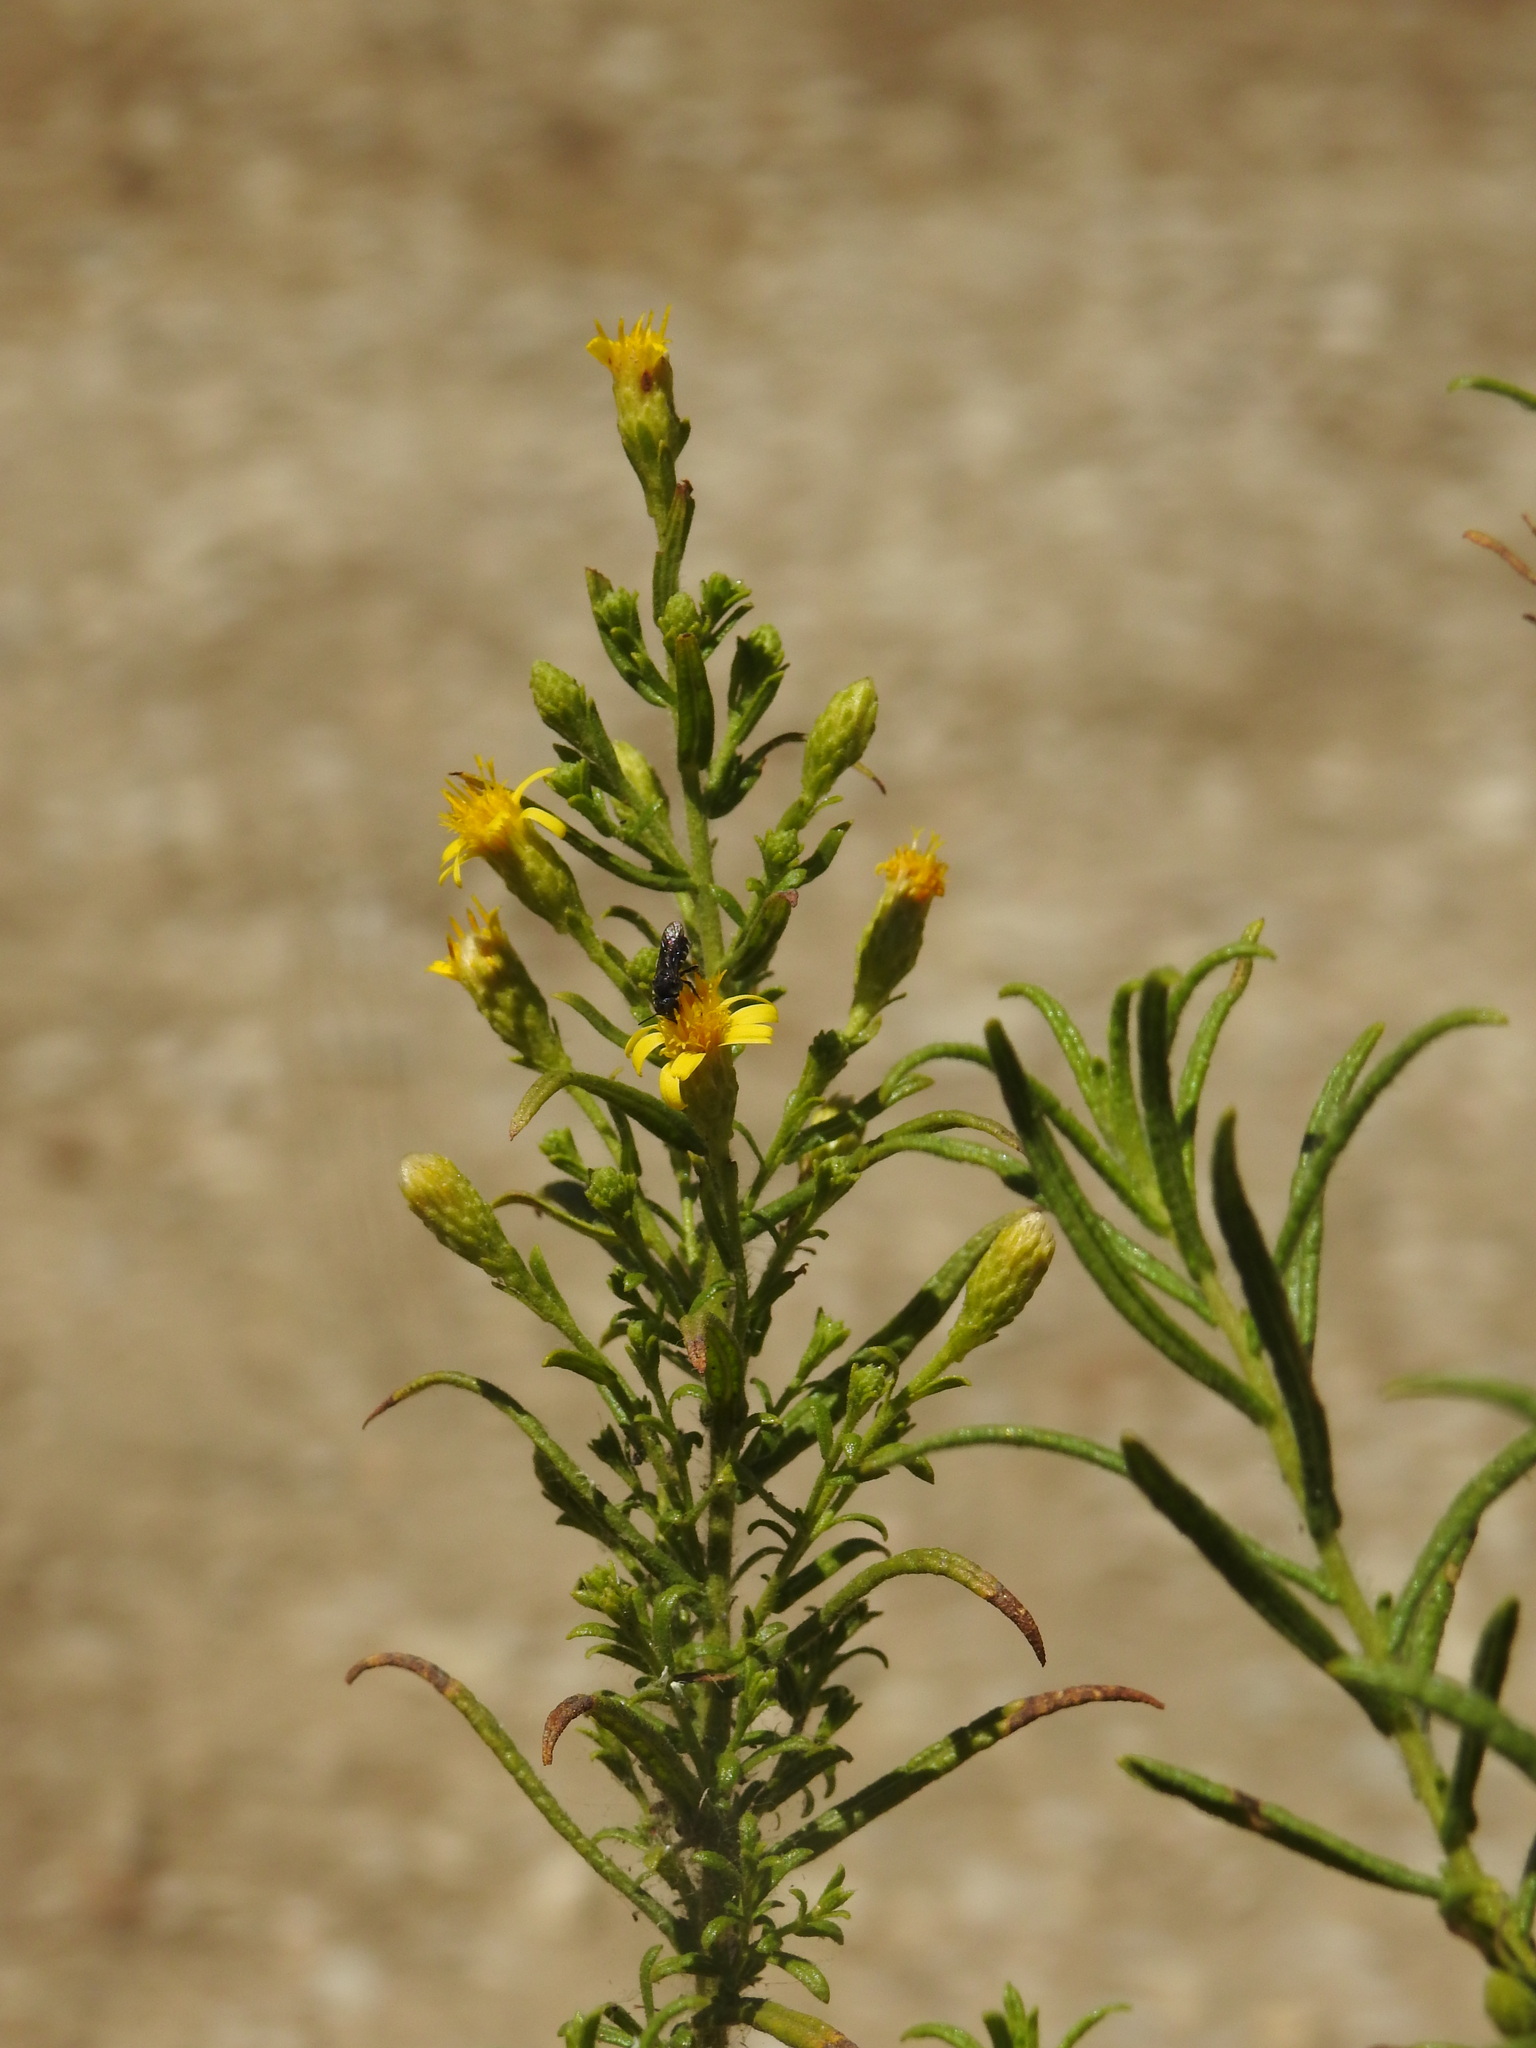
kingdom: Plantae
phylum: Tracheophyta
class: Magnoliopsida
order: Asterales
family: Asteraceae
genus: Dittrichia
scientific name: Dittrichia viscosa
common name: Woody fleabane
